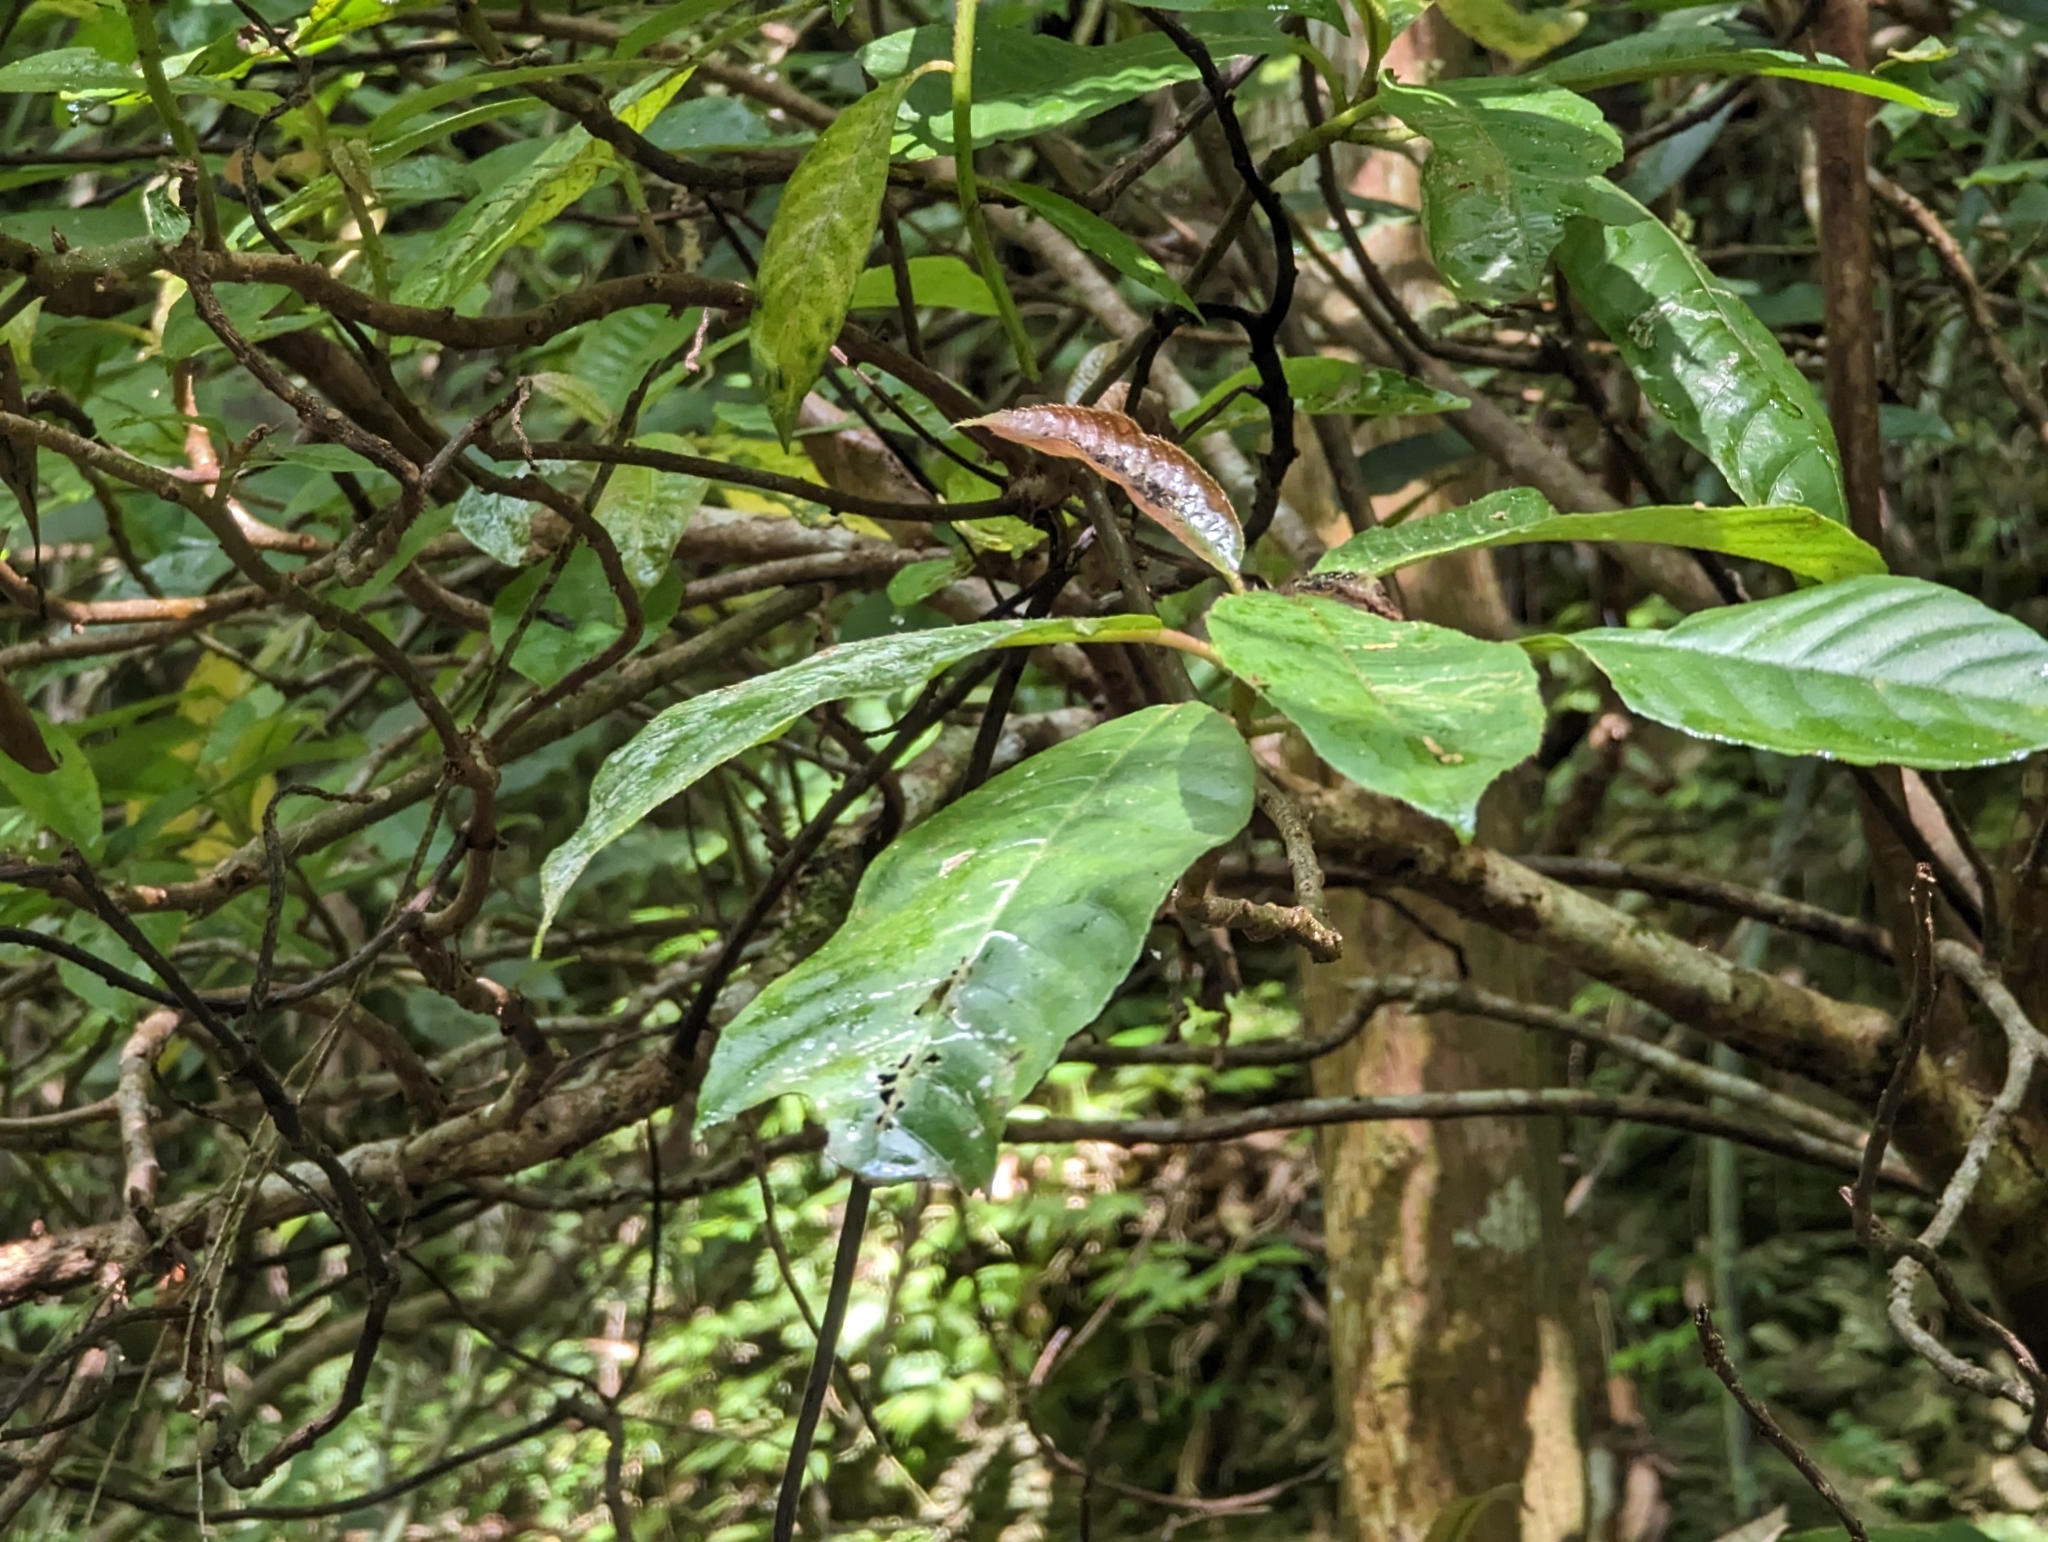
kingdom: Plantae
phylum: Tracheophyta
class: Magnoliopsida
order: Ericales
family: Actinidiaceae
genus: Saurauia
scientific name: Saurauia tristyla
